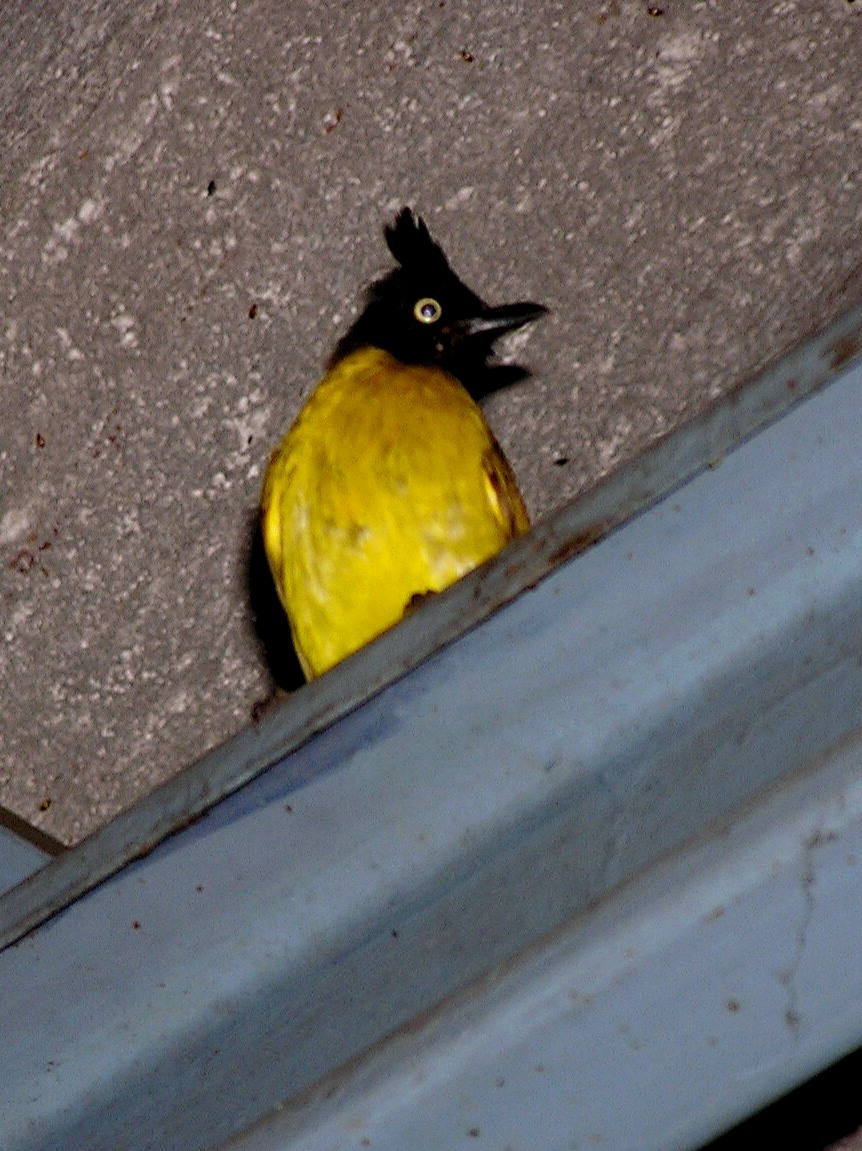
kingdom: Animalia
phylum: Chordata
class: Aves
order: Passeriformes
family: Pycnonotidae
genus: Pycnonotus
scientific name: Pycnonotus flaviventris
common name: Black-crested bulbul
